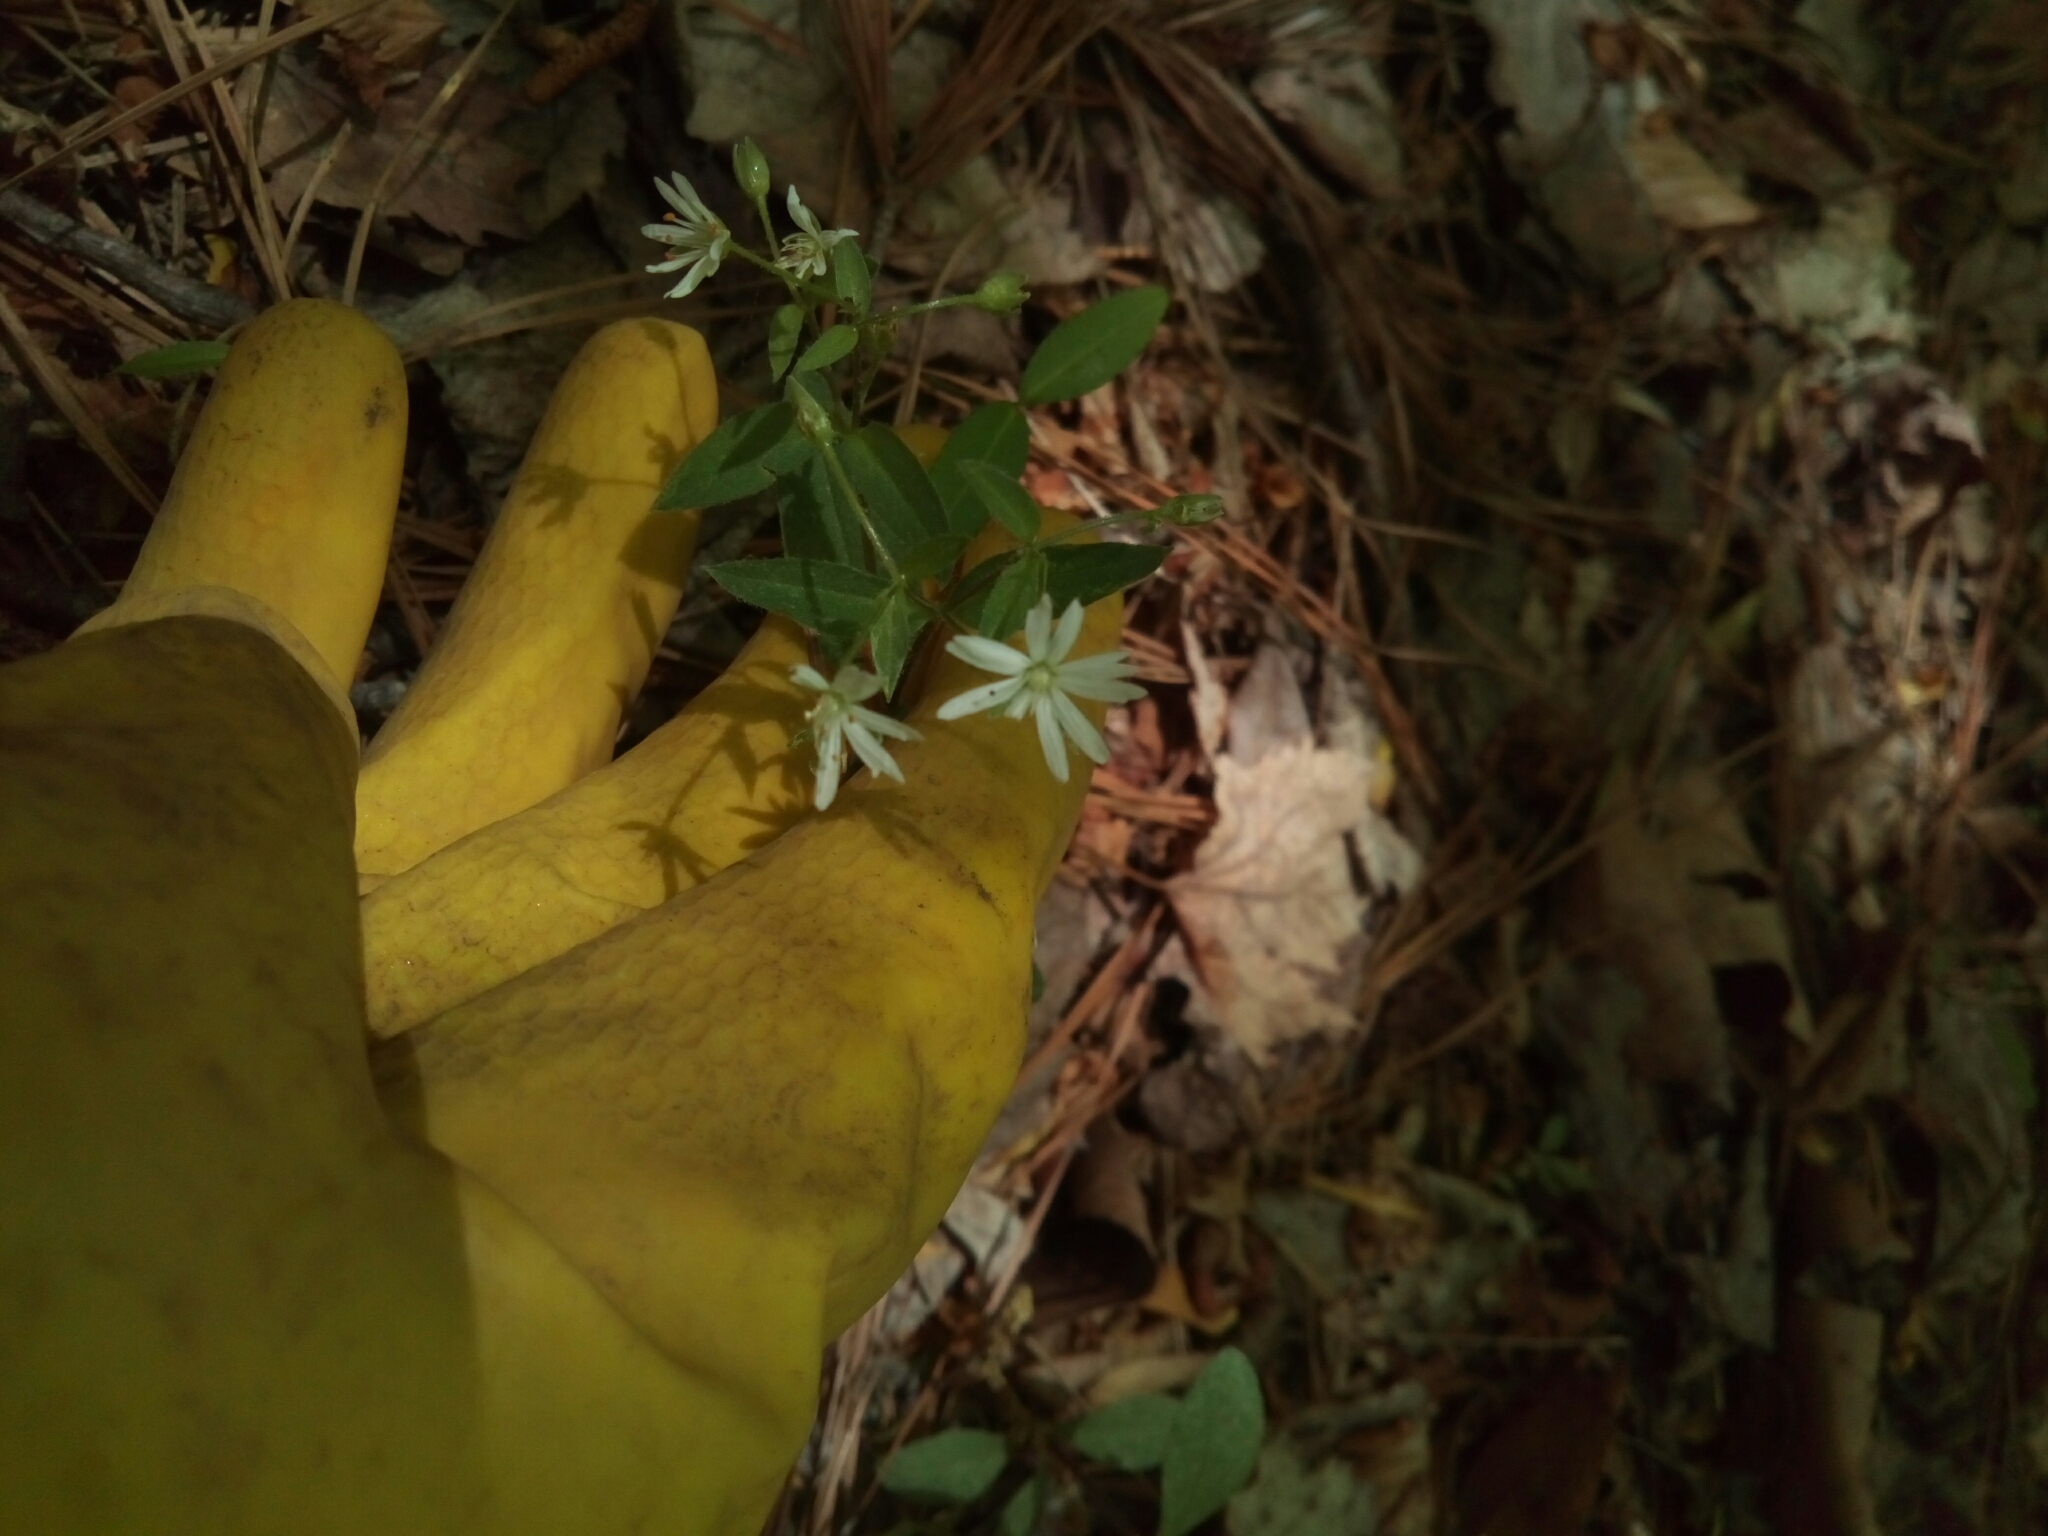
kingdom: Plantae
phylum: Tracheophyta
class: Magnoliopsida
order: Caryophyllales
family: Caryophyllaceae
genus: Stellaria
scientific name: Stellaria pubera
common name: Star chickweed
